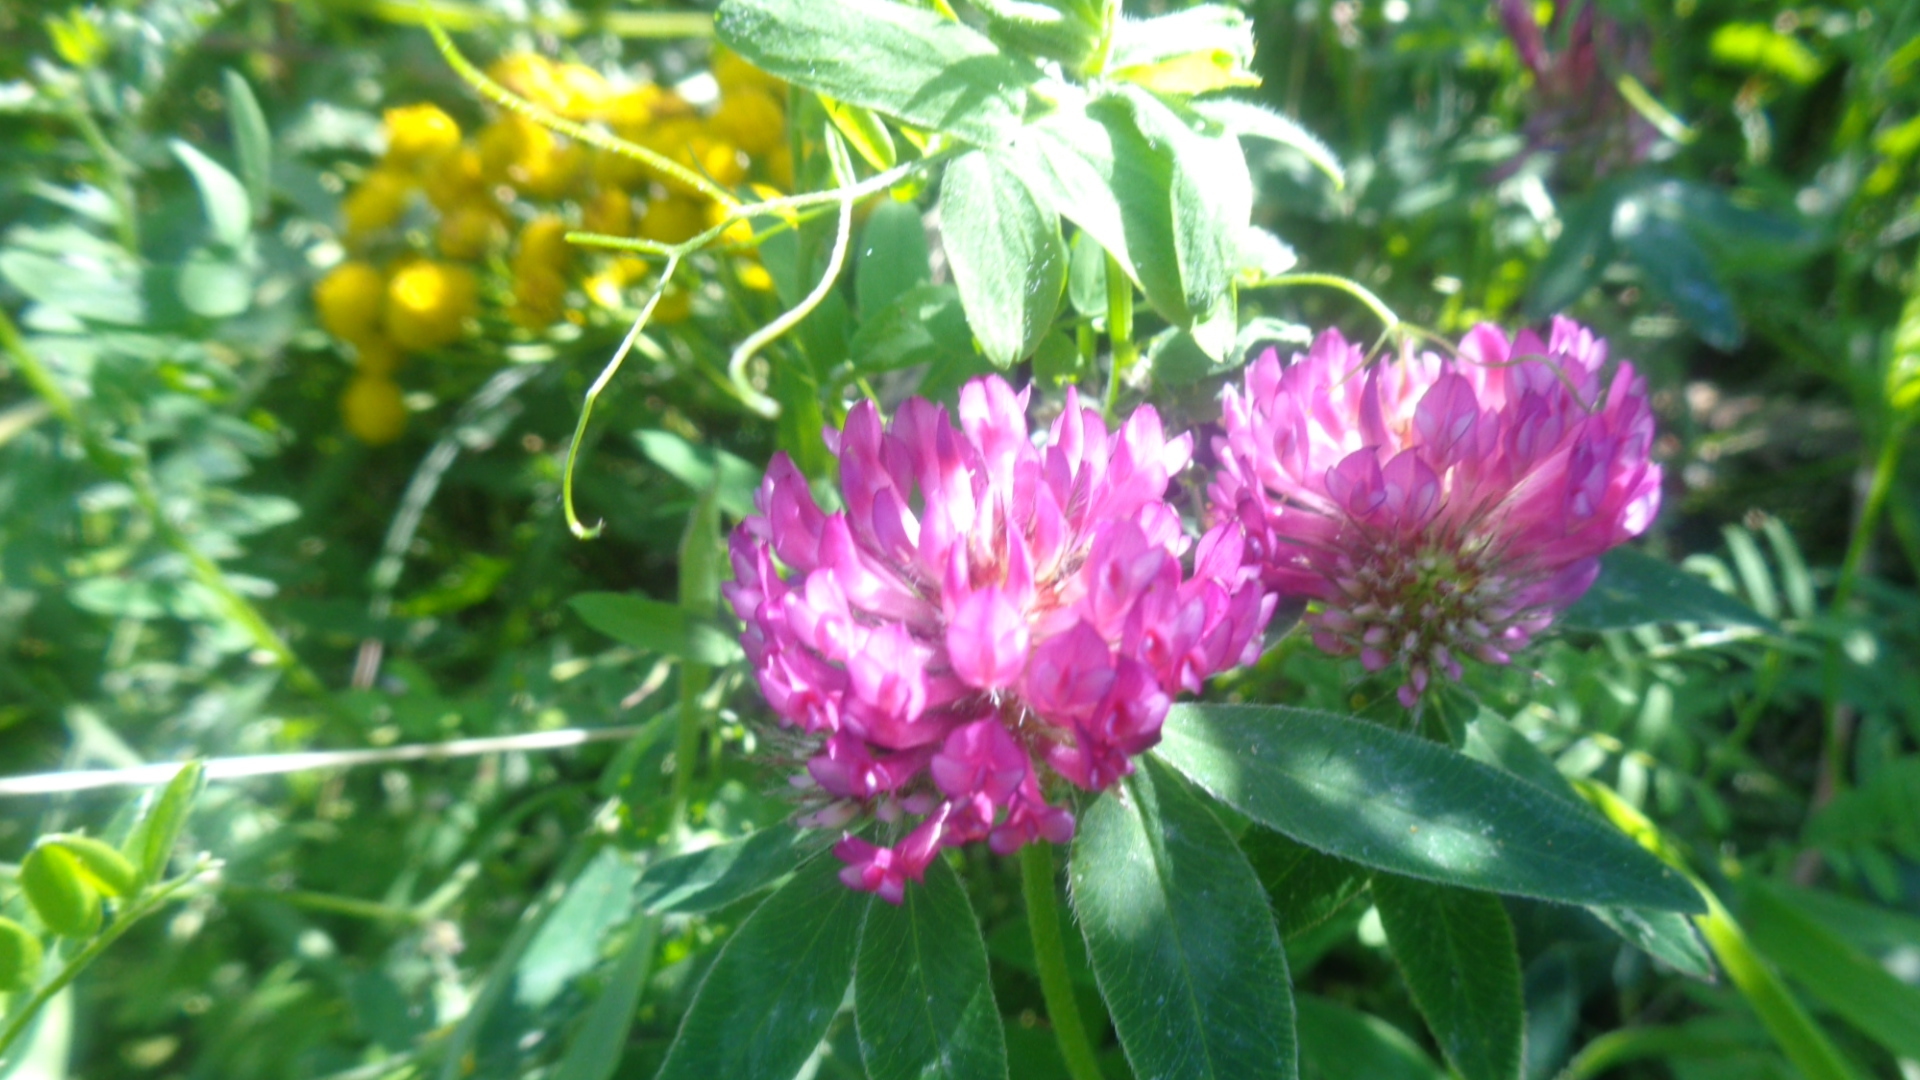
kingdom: Plantae
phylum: Tracheophyta
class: Magnoliopsida
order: Fabales
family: Fabaceae
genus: Trifolium
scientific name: Trifolium medium
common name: Zigzag clover
